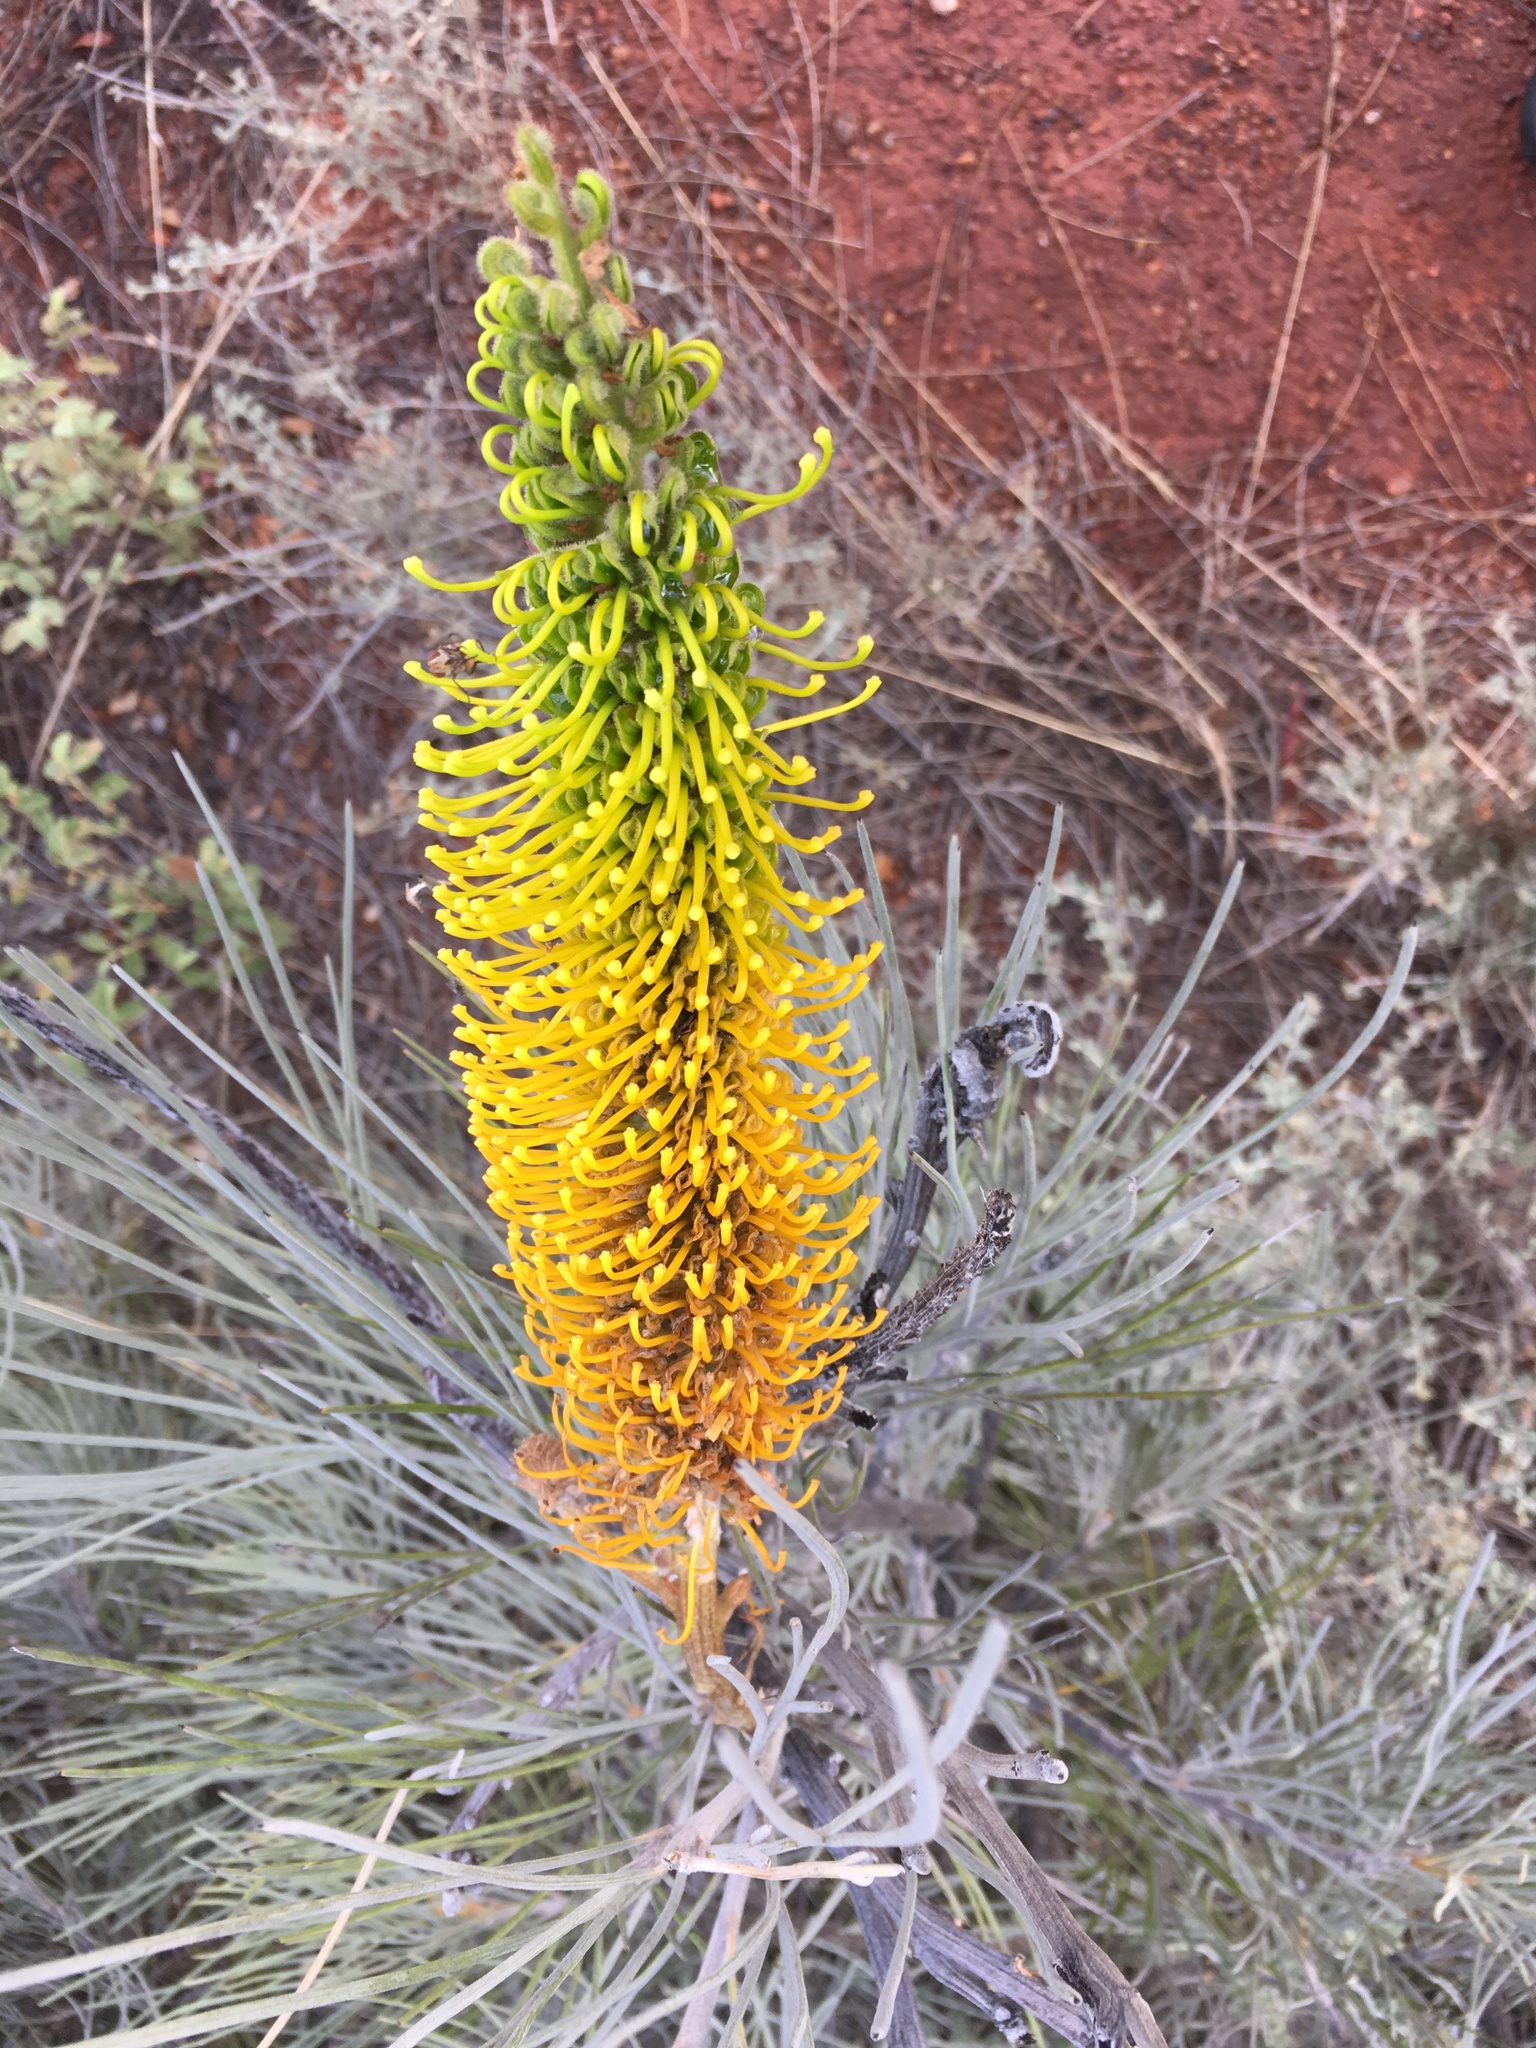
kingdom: Plantae
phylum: Tracheophyta
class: Magnoliopsida
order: Proteales
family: Proteaceae
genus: Grevillea
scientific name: Grevillea eriostachya
